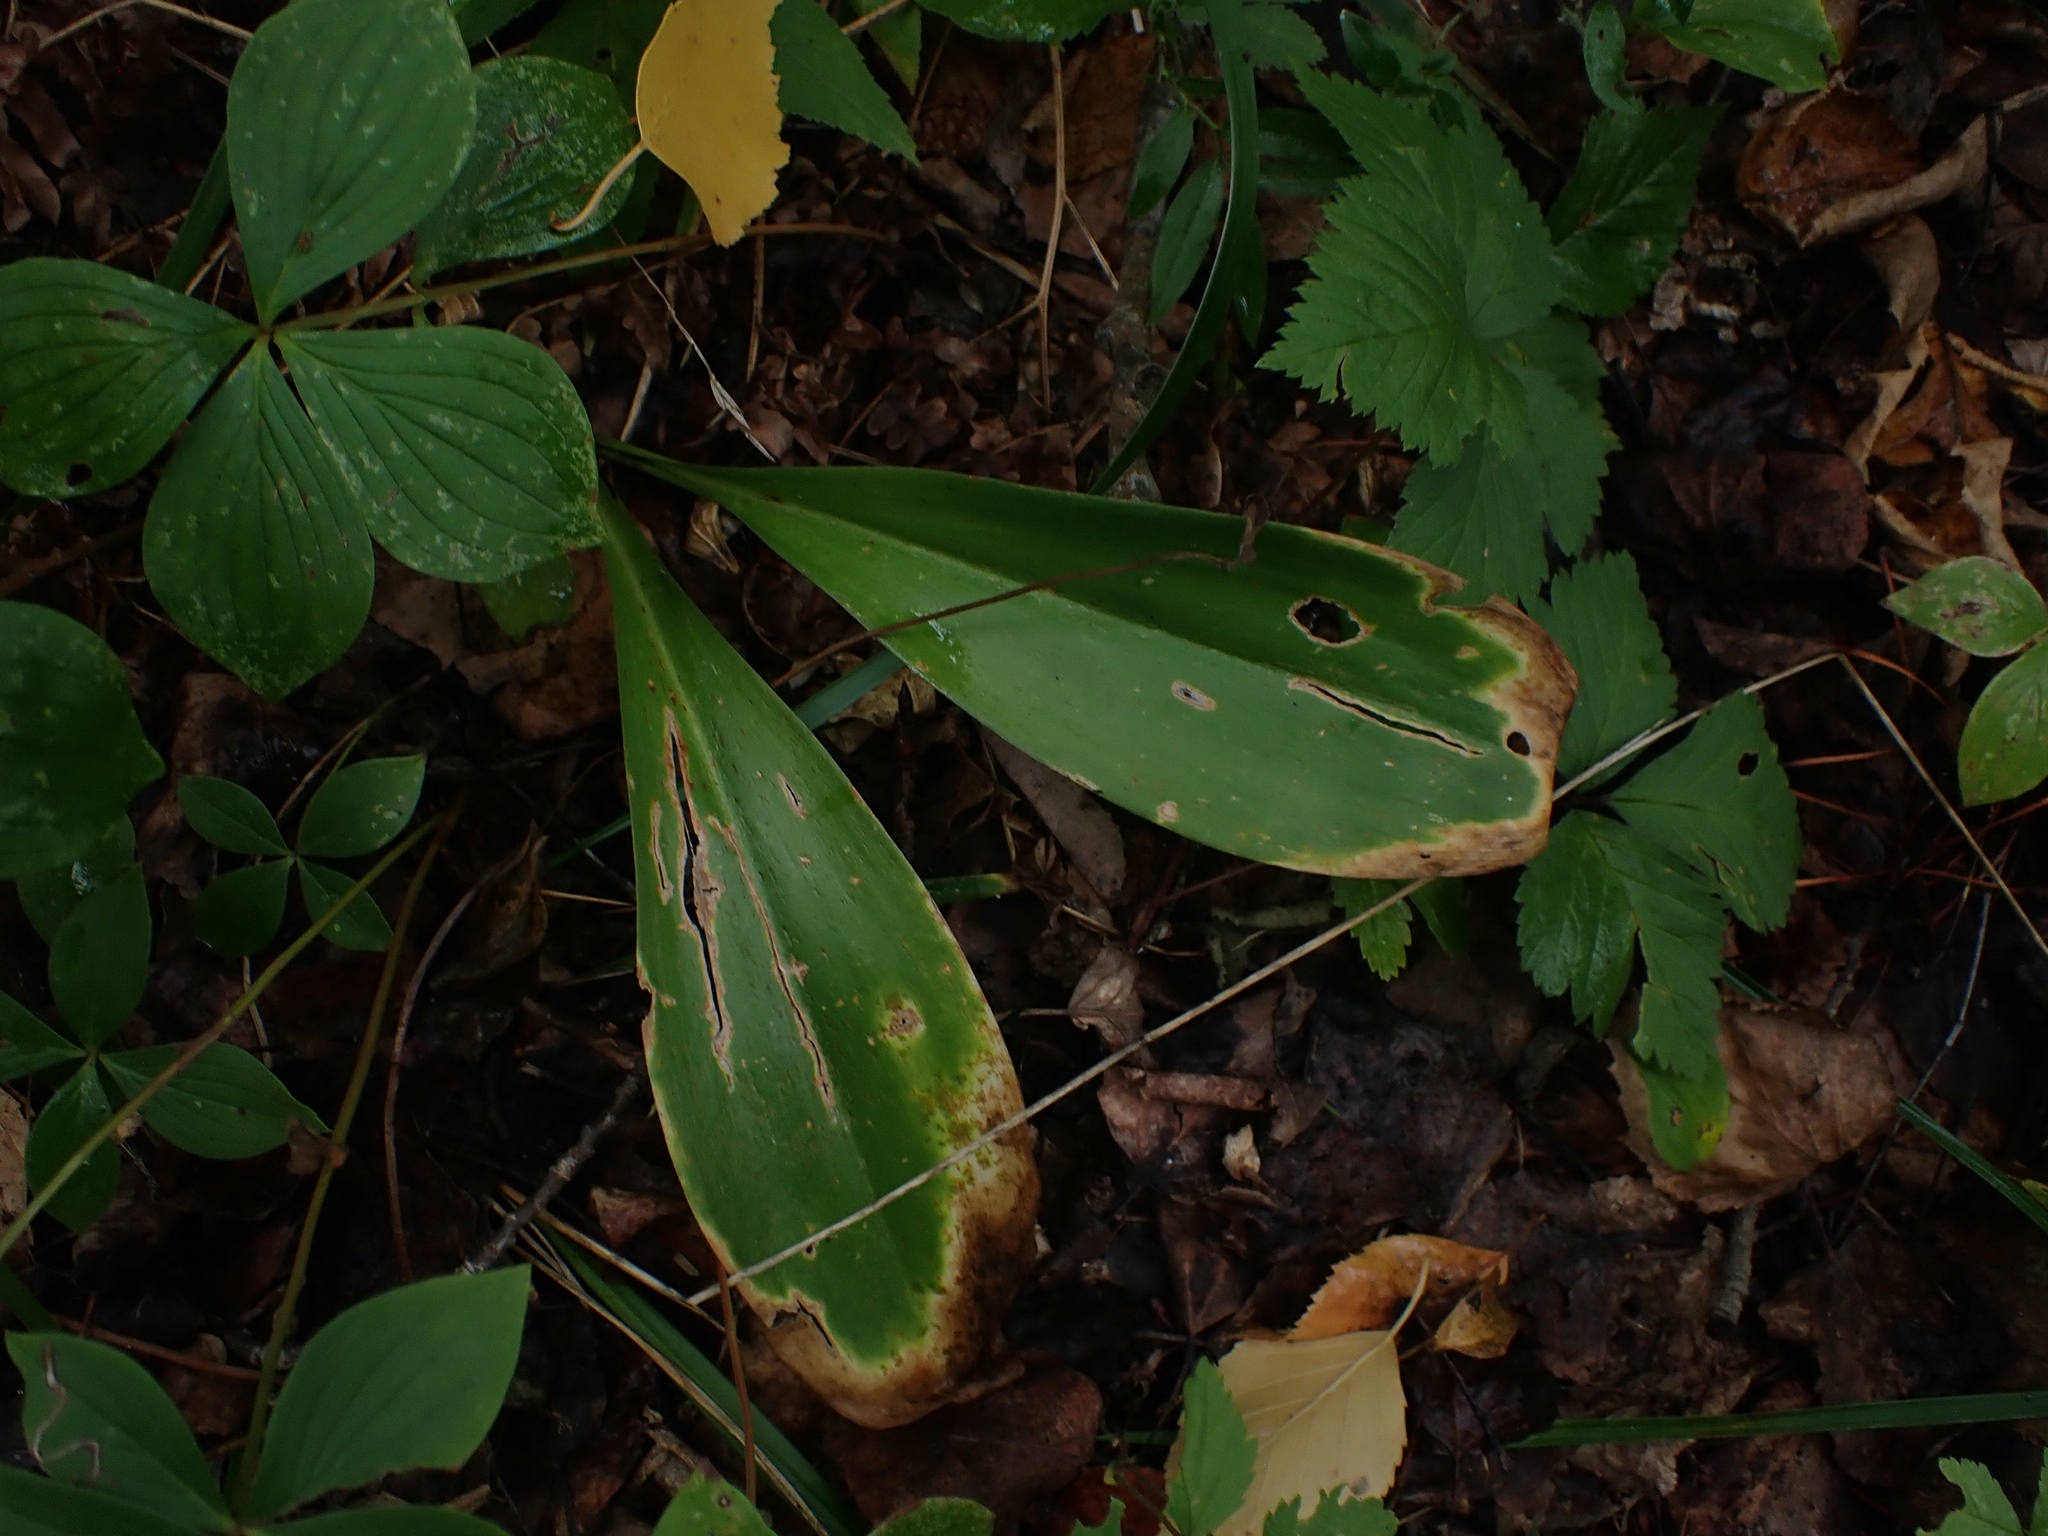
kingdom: Plantae
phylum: Tracheophyta
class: Liliopsida
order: Liliales
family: Liliaceae
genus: Clintonia
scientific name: Clintonia borealis
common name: Yellow clintonia
